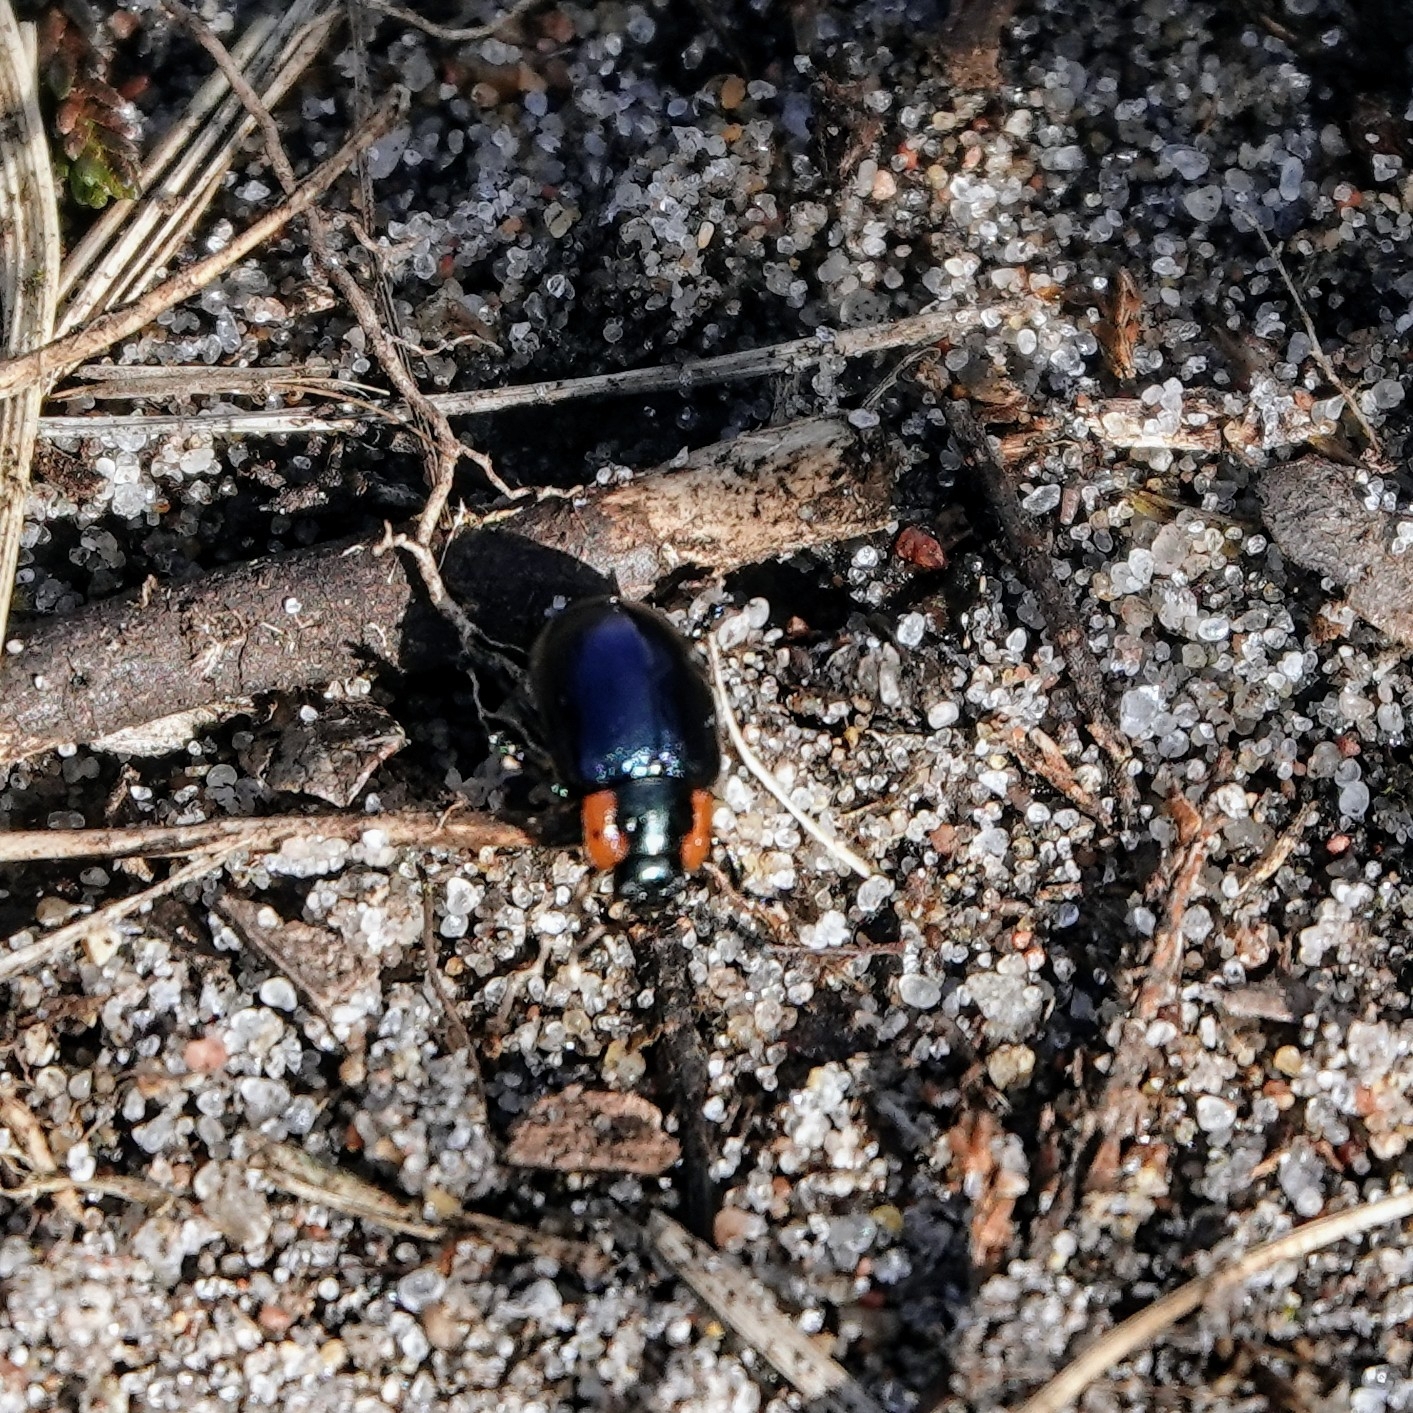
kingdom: Animalia
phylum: Arthropoda
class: Insecta
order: Coleoptera
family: Chrysomelidae
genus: Chrysomela
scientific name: Chrysomela collaris
